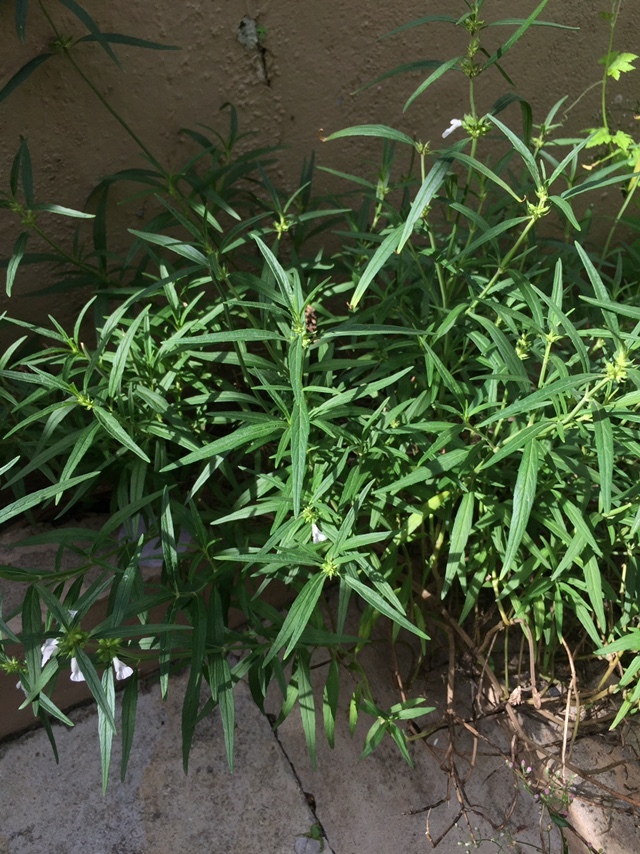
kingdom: Plantae
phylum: Tracheophyta
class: Magnoliopsida
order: Lamiales
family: Lamiaceae
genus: Leucas
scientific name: Leucas lavandulifolia
